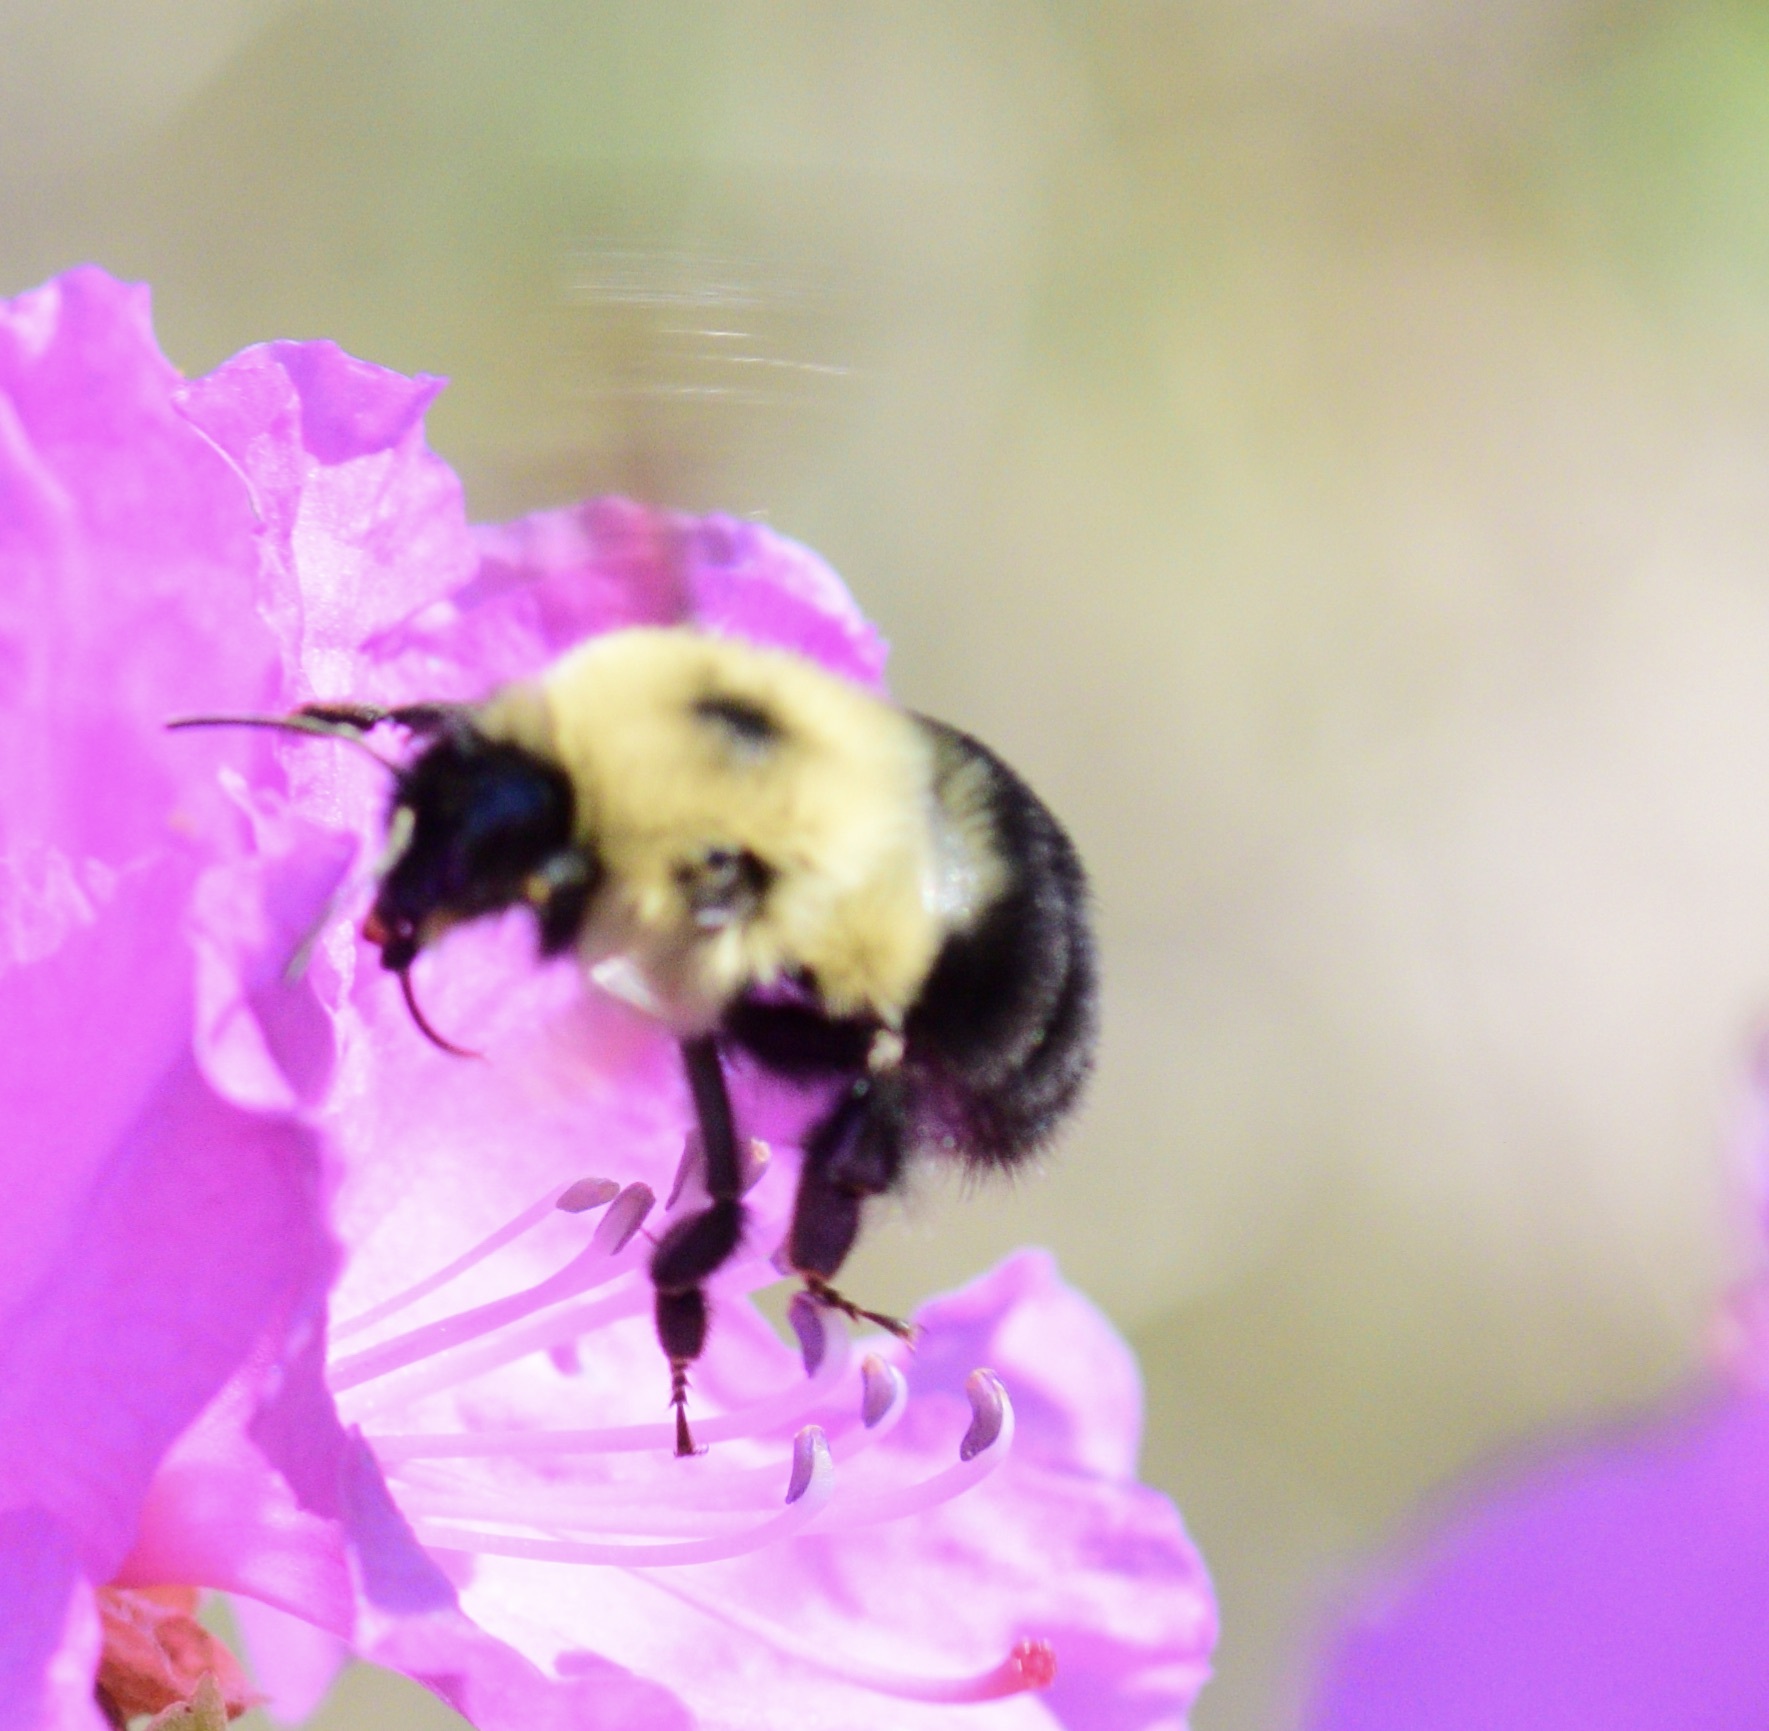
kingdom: Animalia
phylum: Arthropoda
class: Insecta
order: Hymenoptera
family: Apidae
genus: Bombus
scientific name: Bombus bimaculatus
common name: Two-spotted bumble bee
